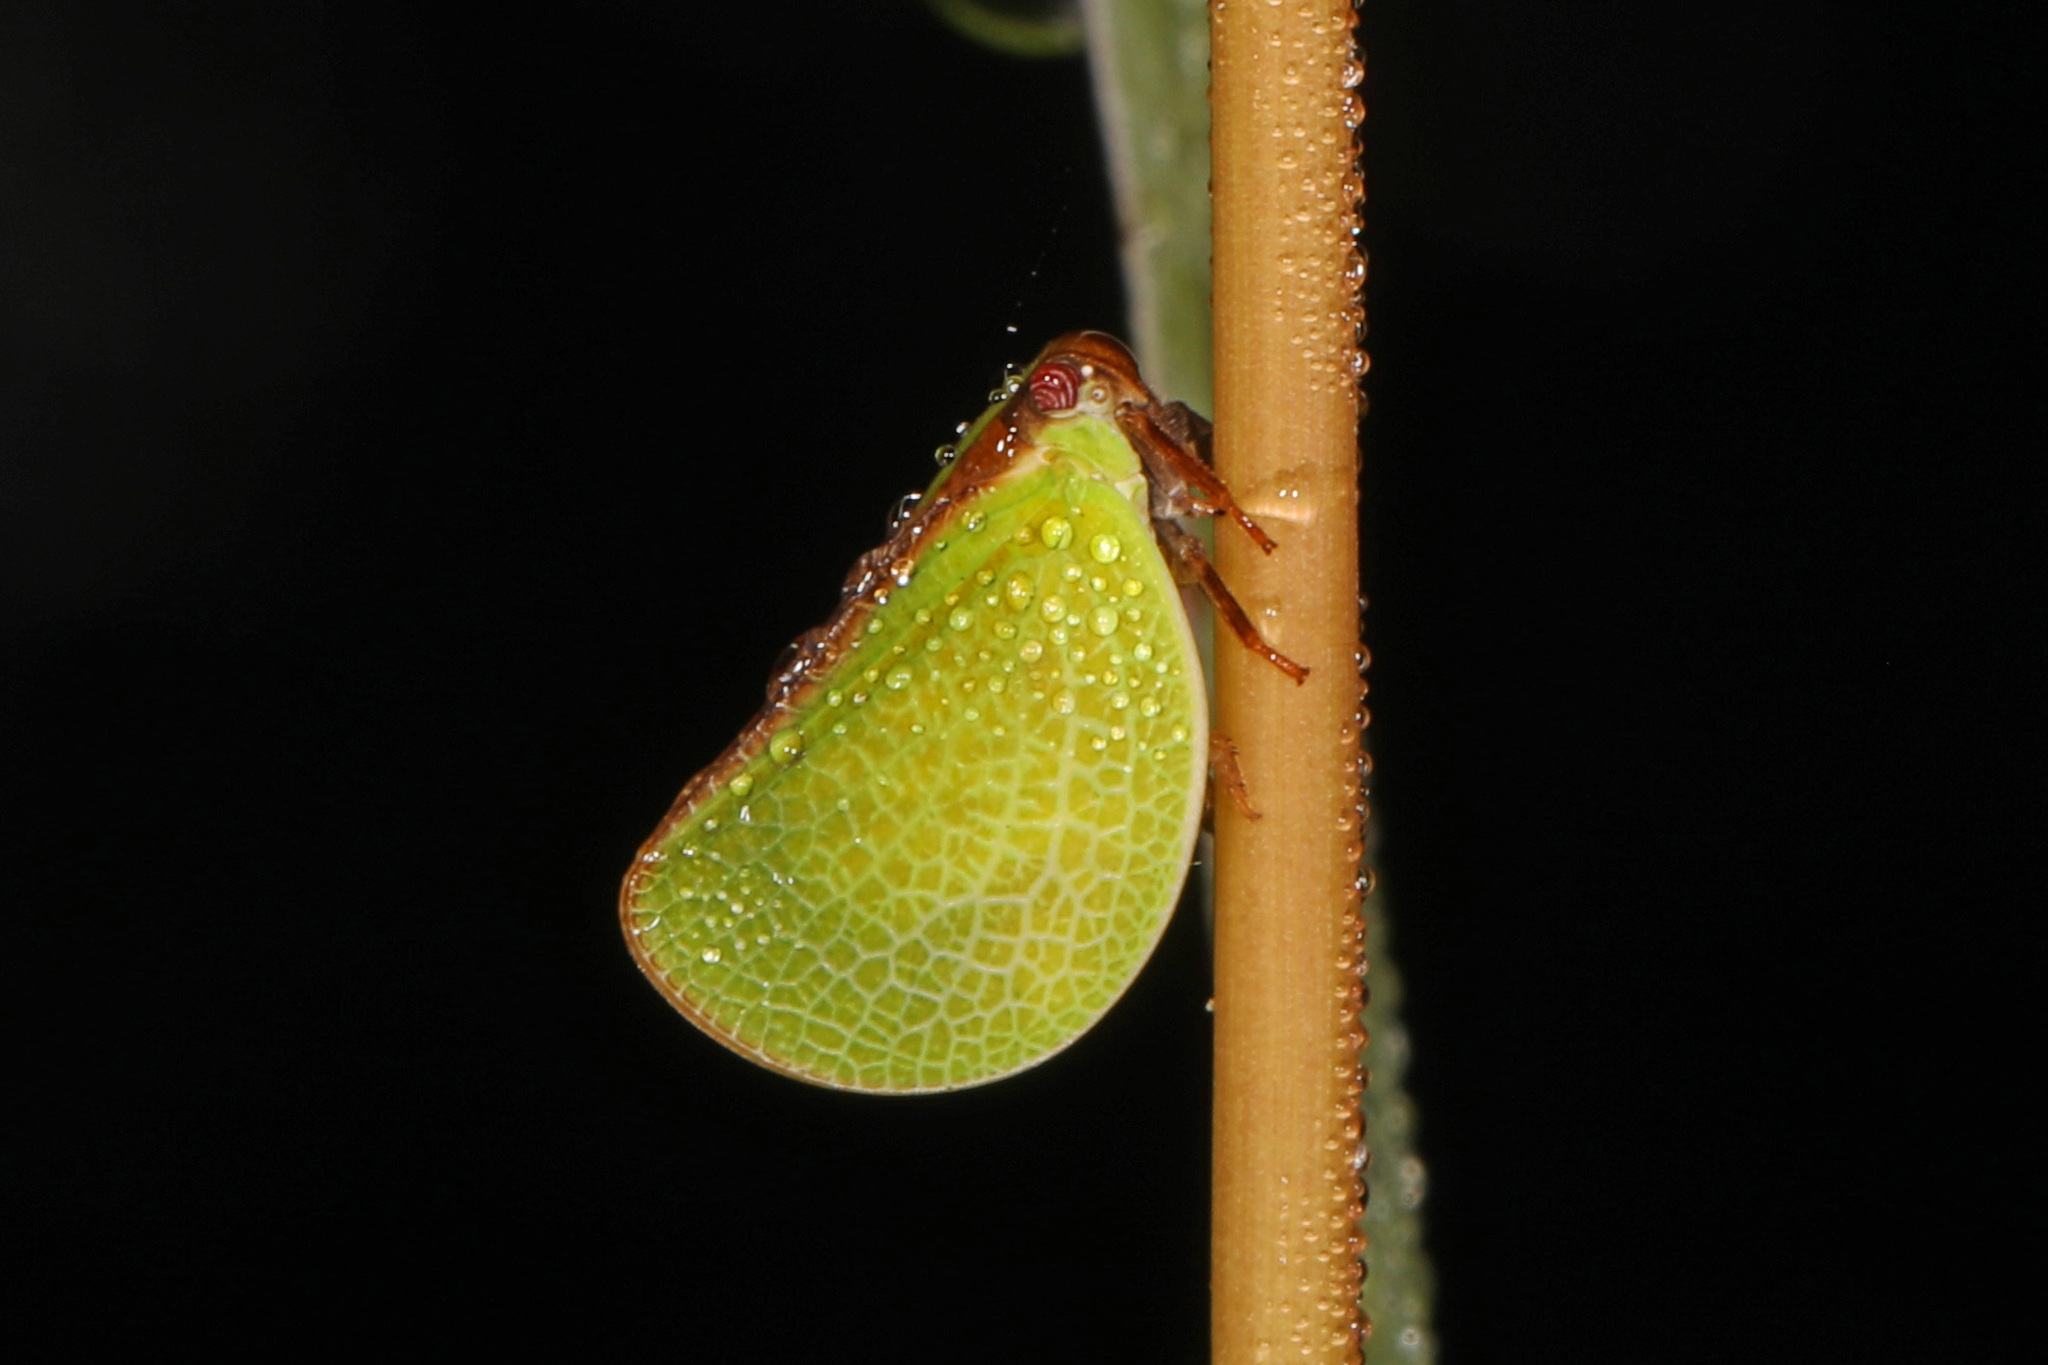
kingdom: Animalia
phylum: Arthropoda
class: Insecta
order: Hemiptera
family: Acanaloniidae
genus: Acanalonia
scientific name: Acanalonia bivittata
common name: Two-striped planthopper
